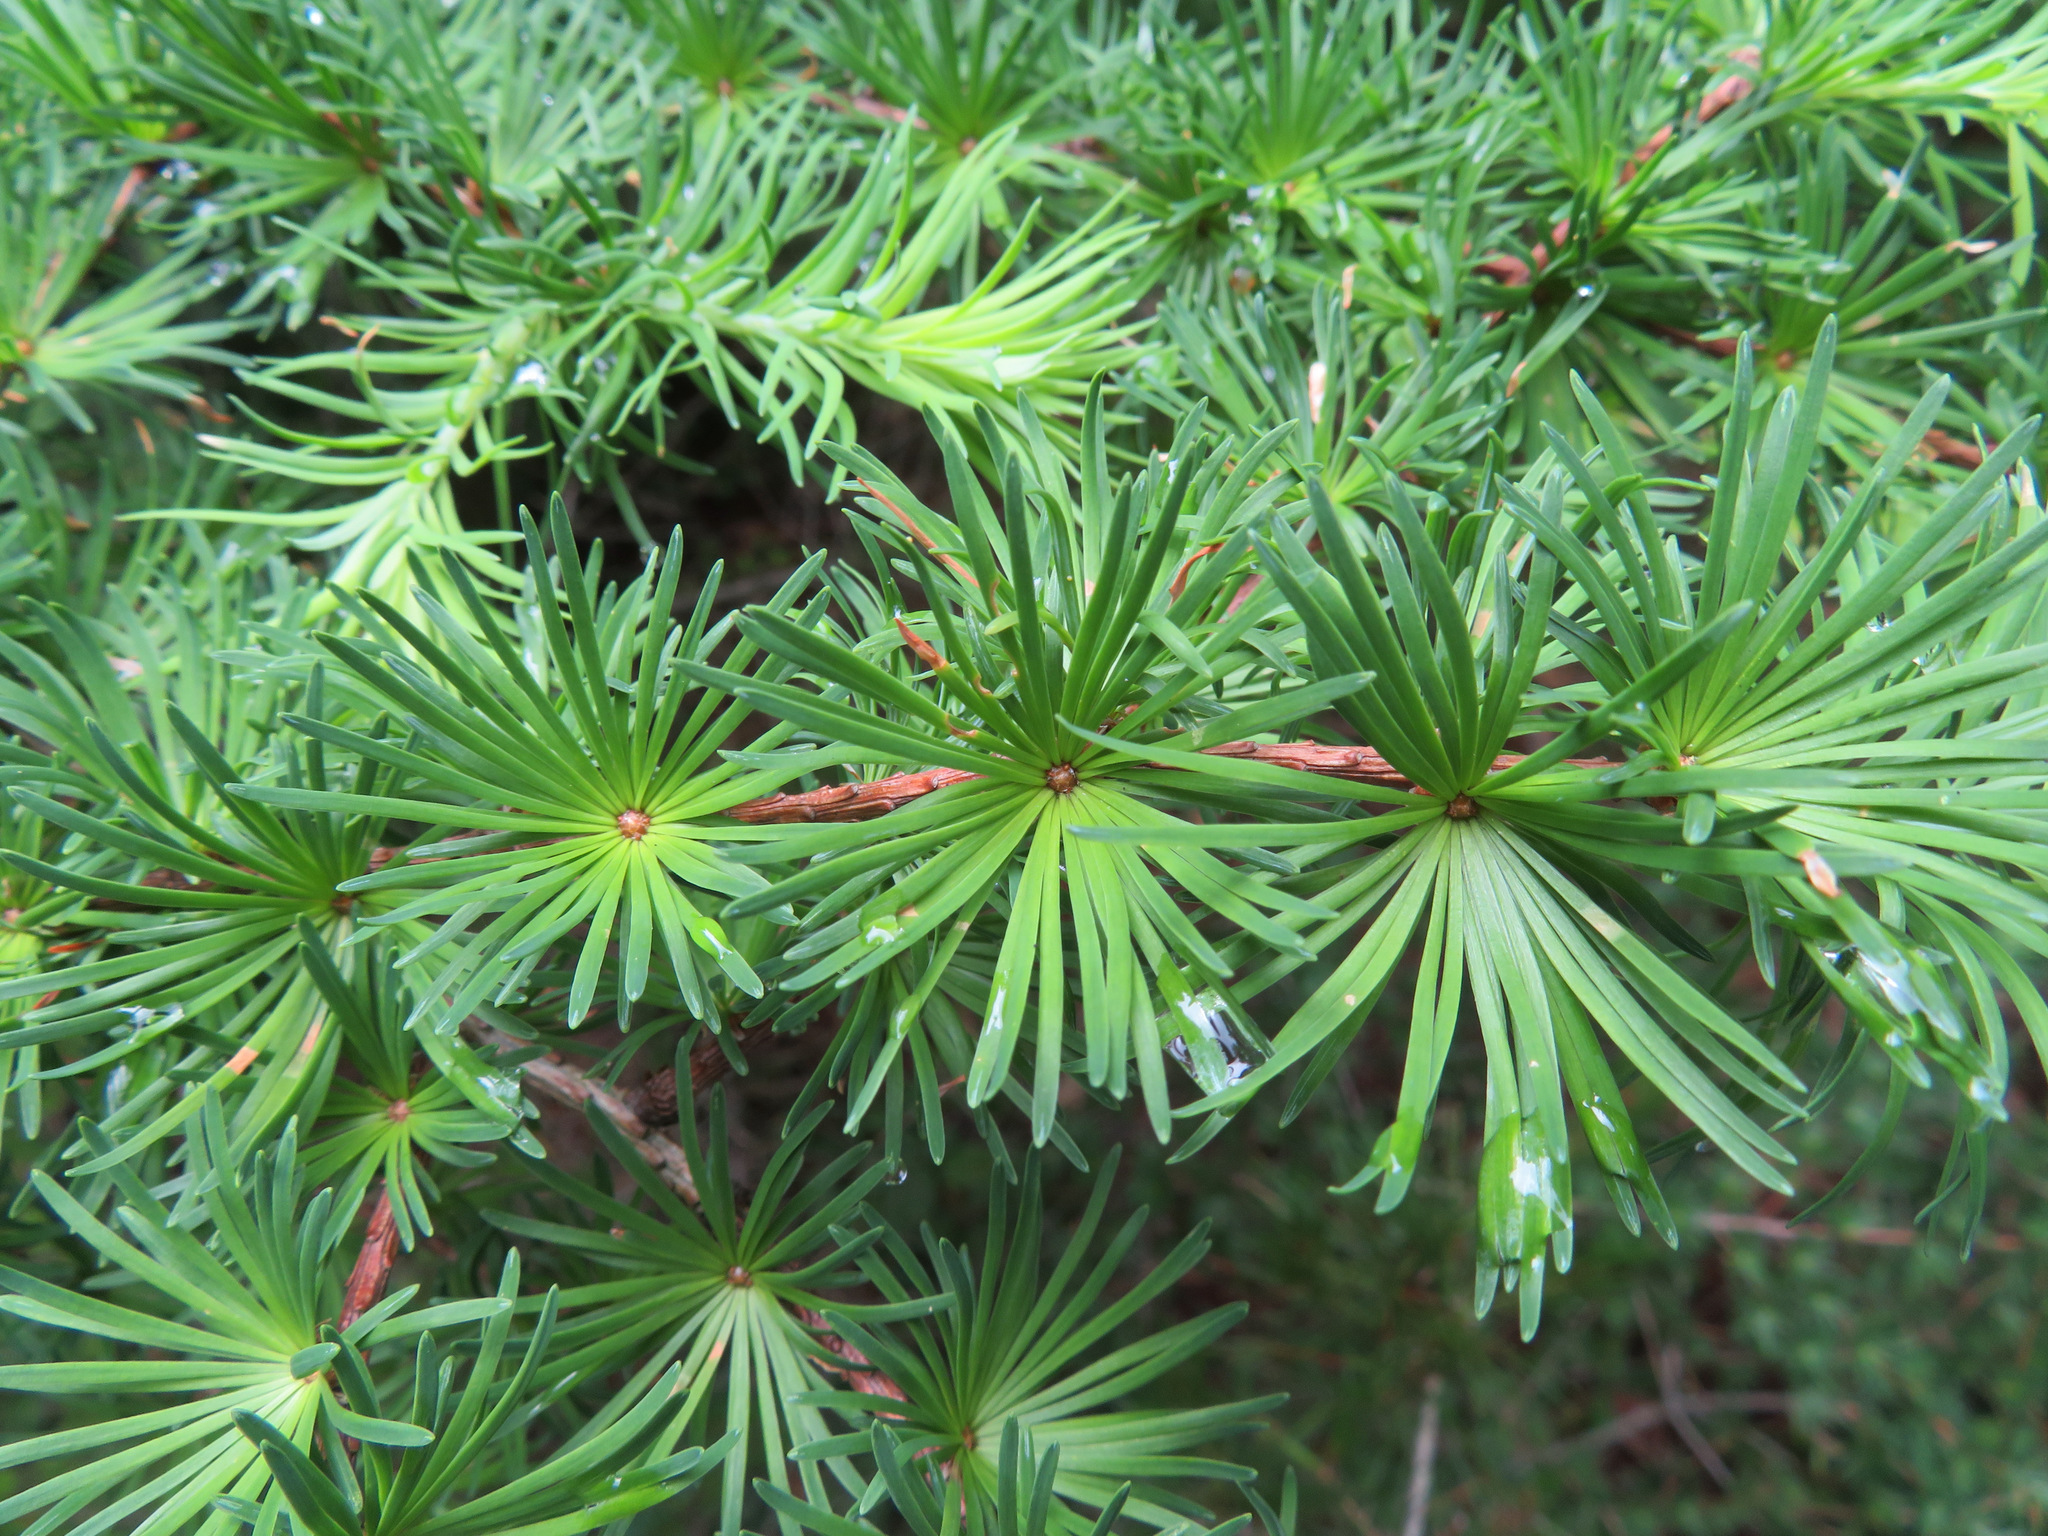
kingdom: Plantae
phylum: Tracheophyta
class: Pinopsida
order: Pinales
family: Pinaceae
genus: Larix
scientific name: Larix kaempferi
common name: Japanese larch
